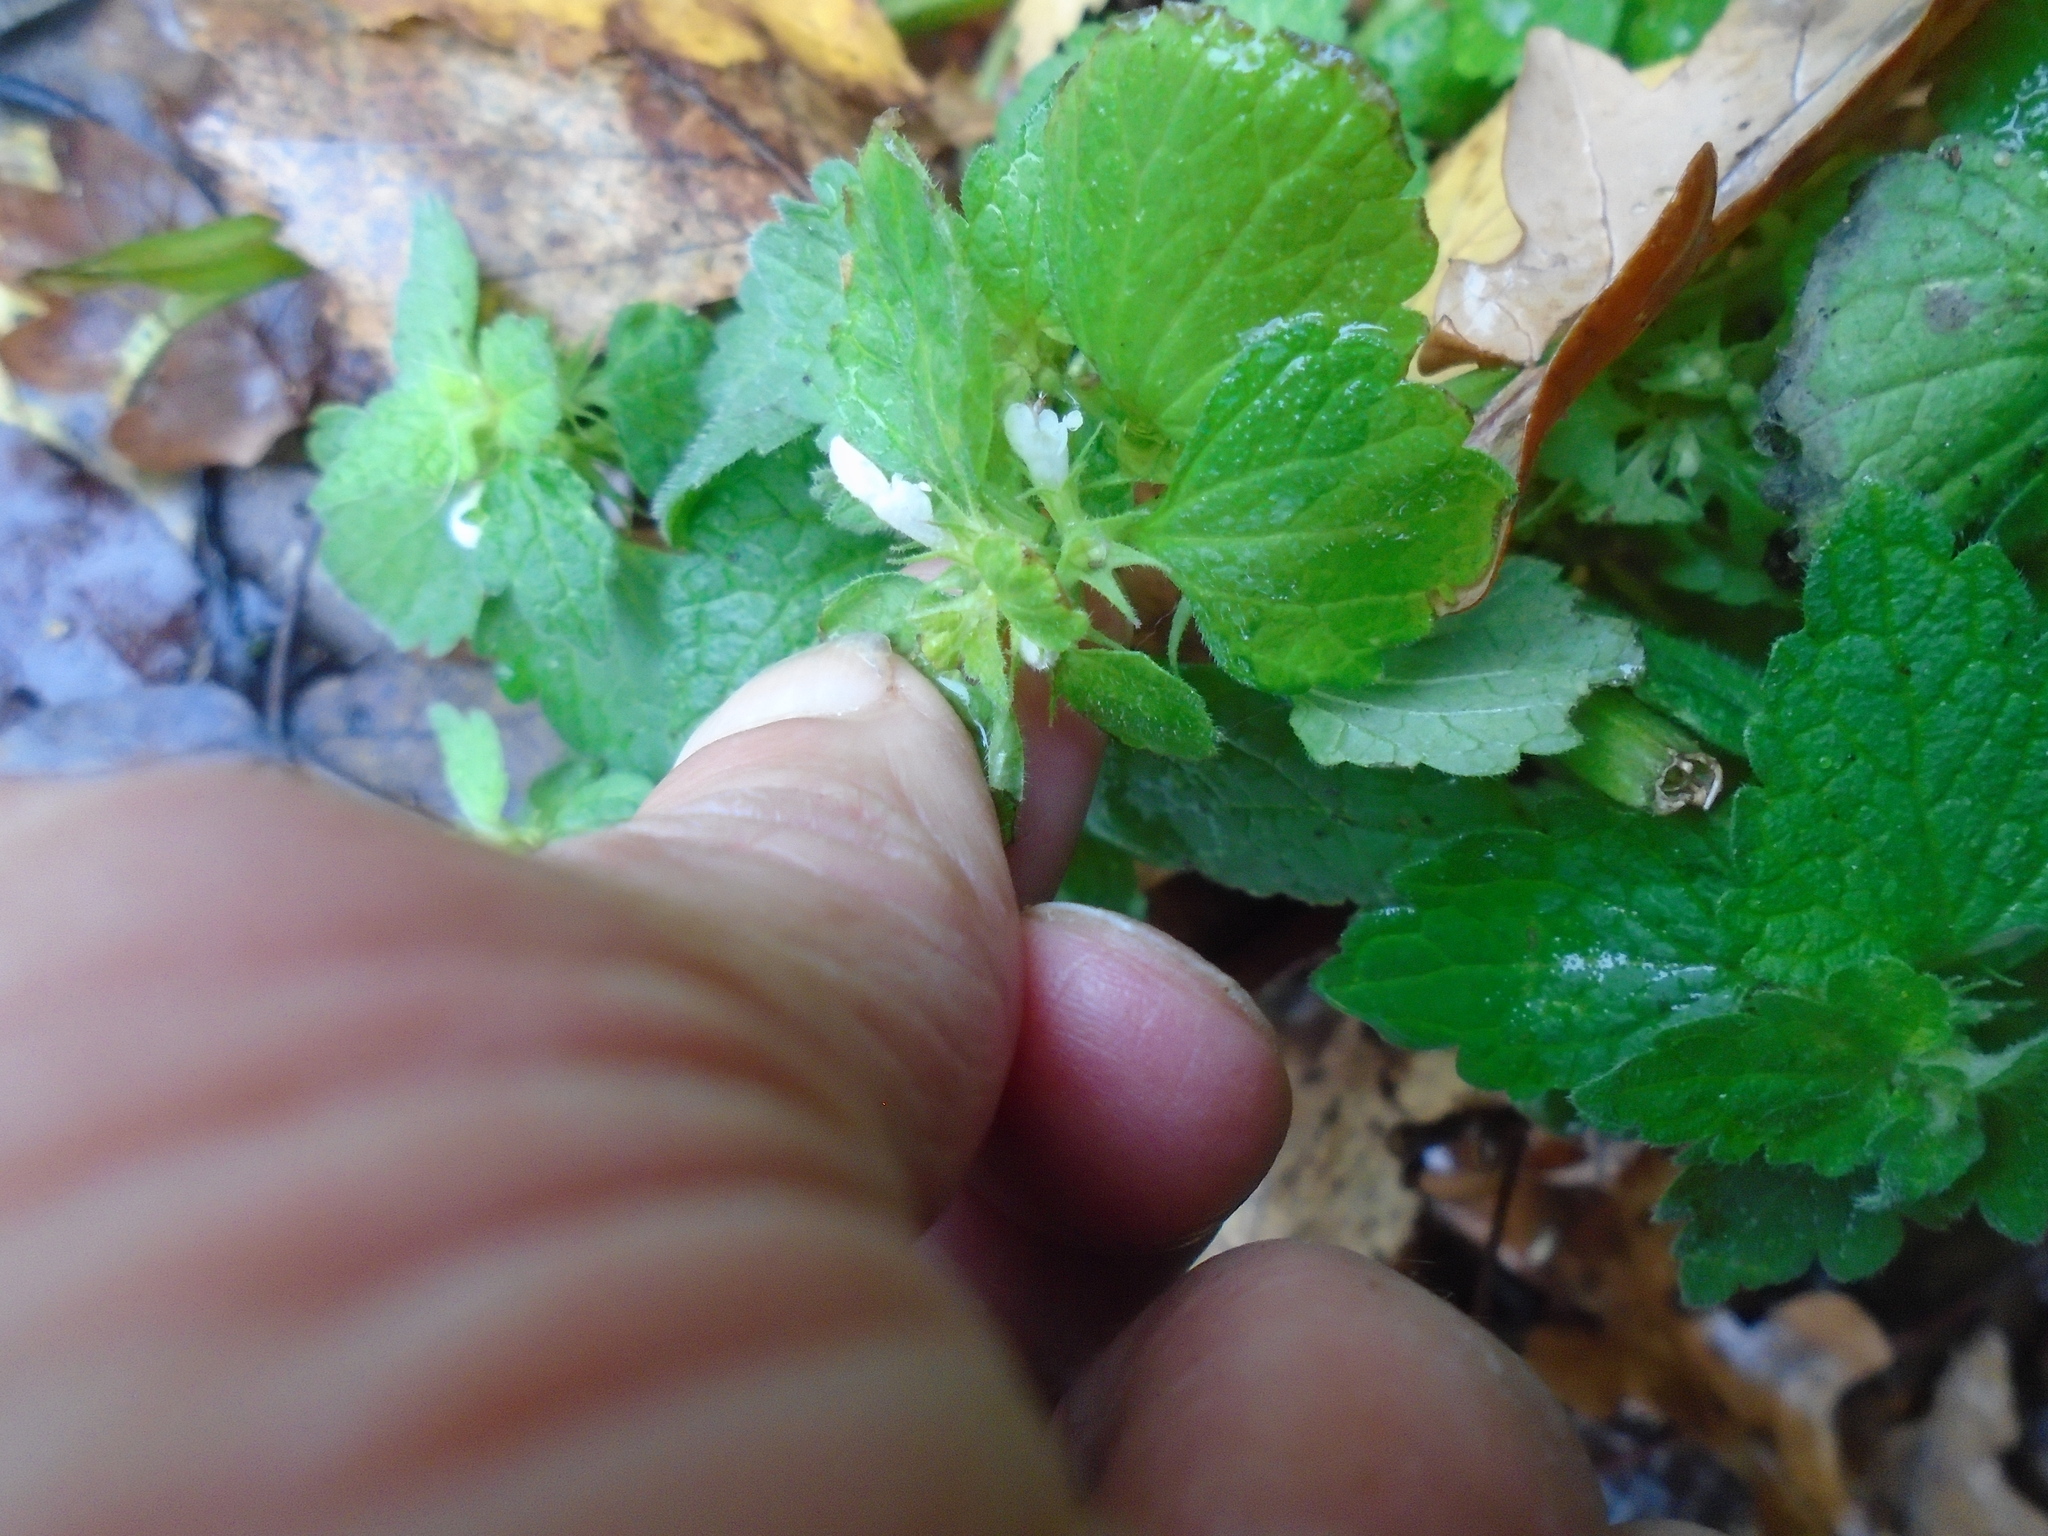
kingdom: Plantae
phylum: Tracheophyta
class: Magnoliopsida
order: Lamiales
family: Lamiaceae
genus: Lamium
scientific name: Lamium purpureum
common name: Red dead-nettle
